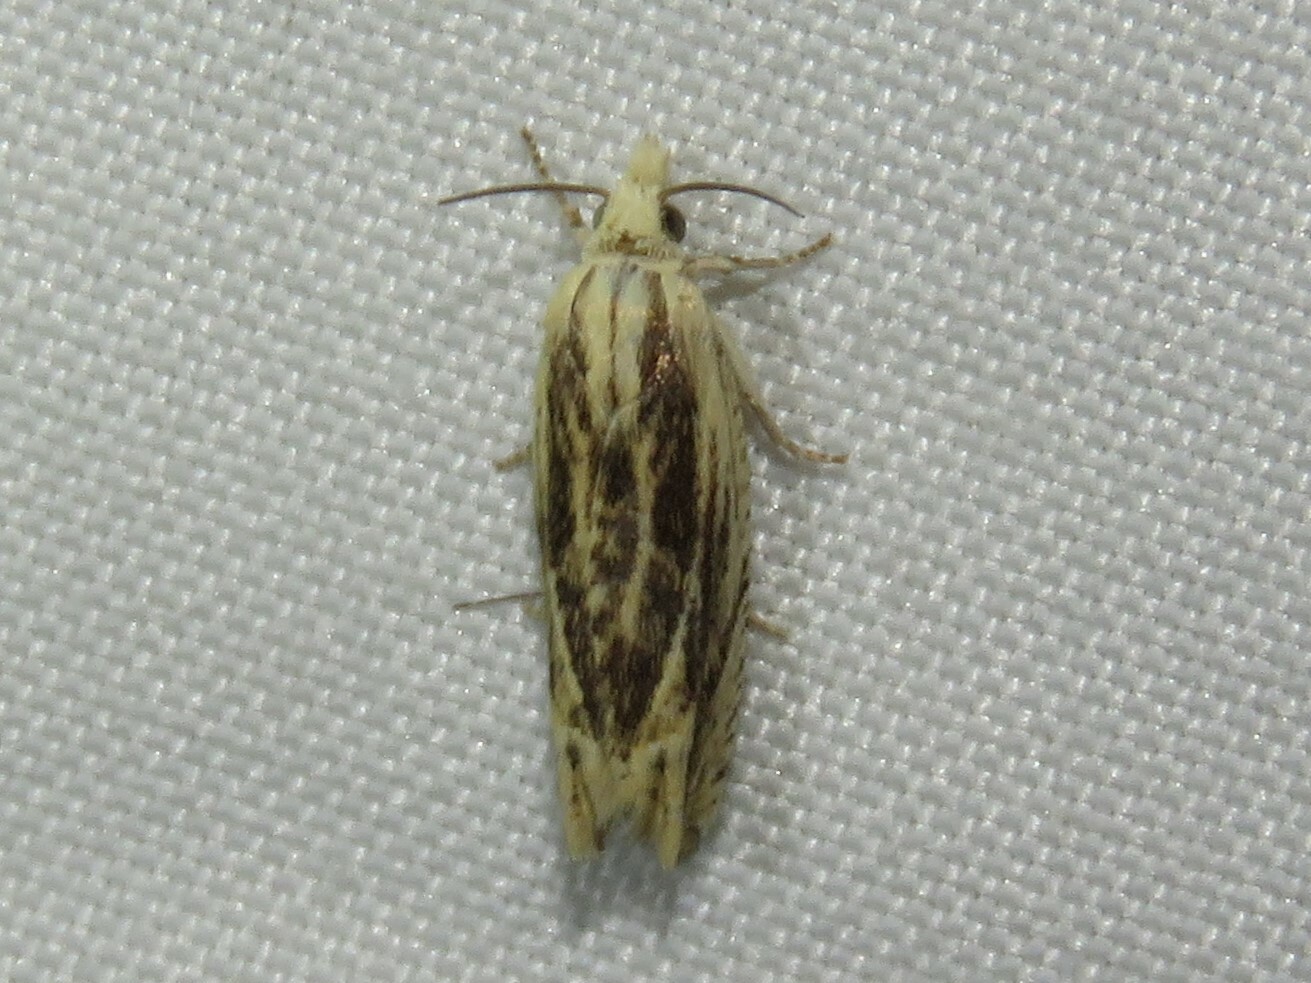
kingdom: Animalia
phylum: Arthropoda
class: Insecta
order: Lepidoptera
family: Tortricidae
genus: Eucosma
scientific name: Eucosma ochrocephala
